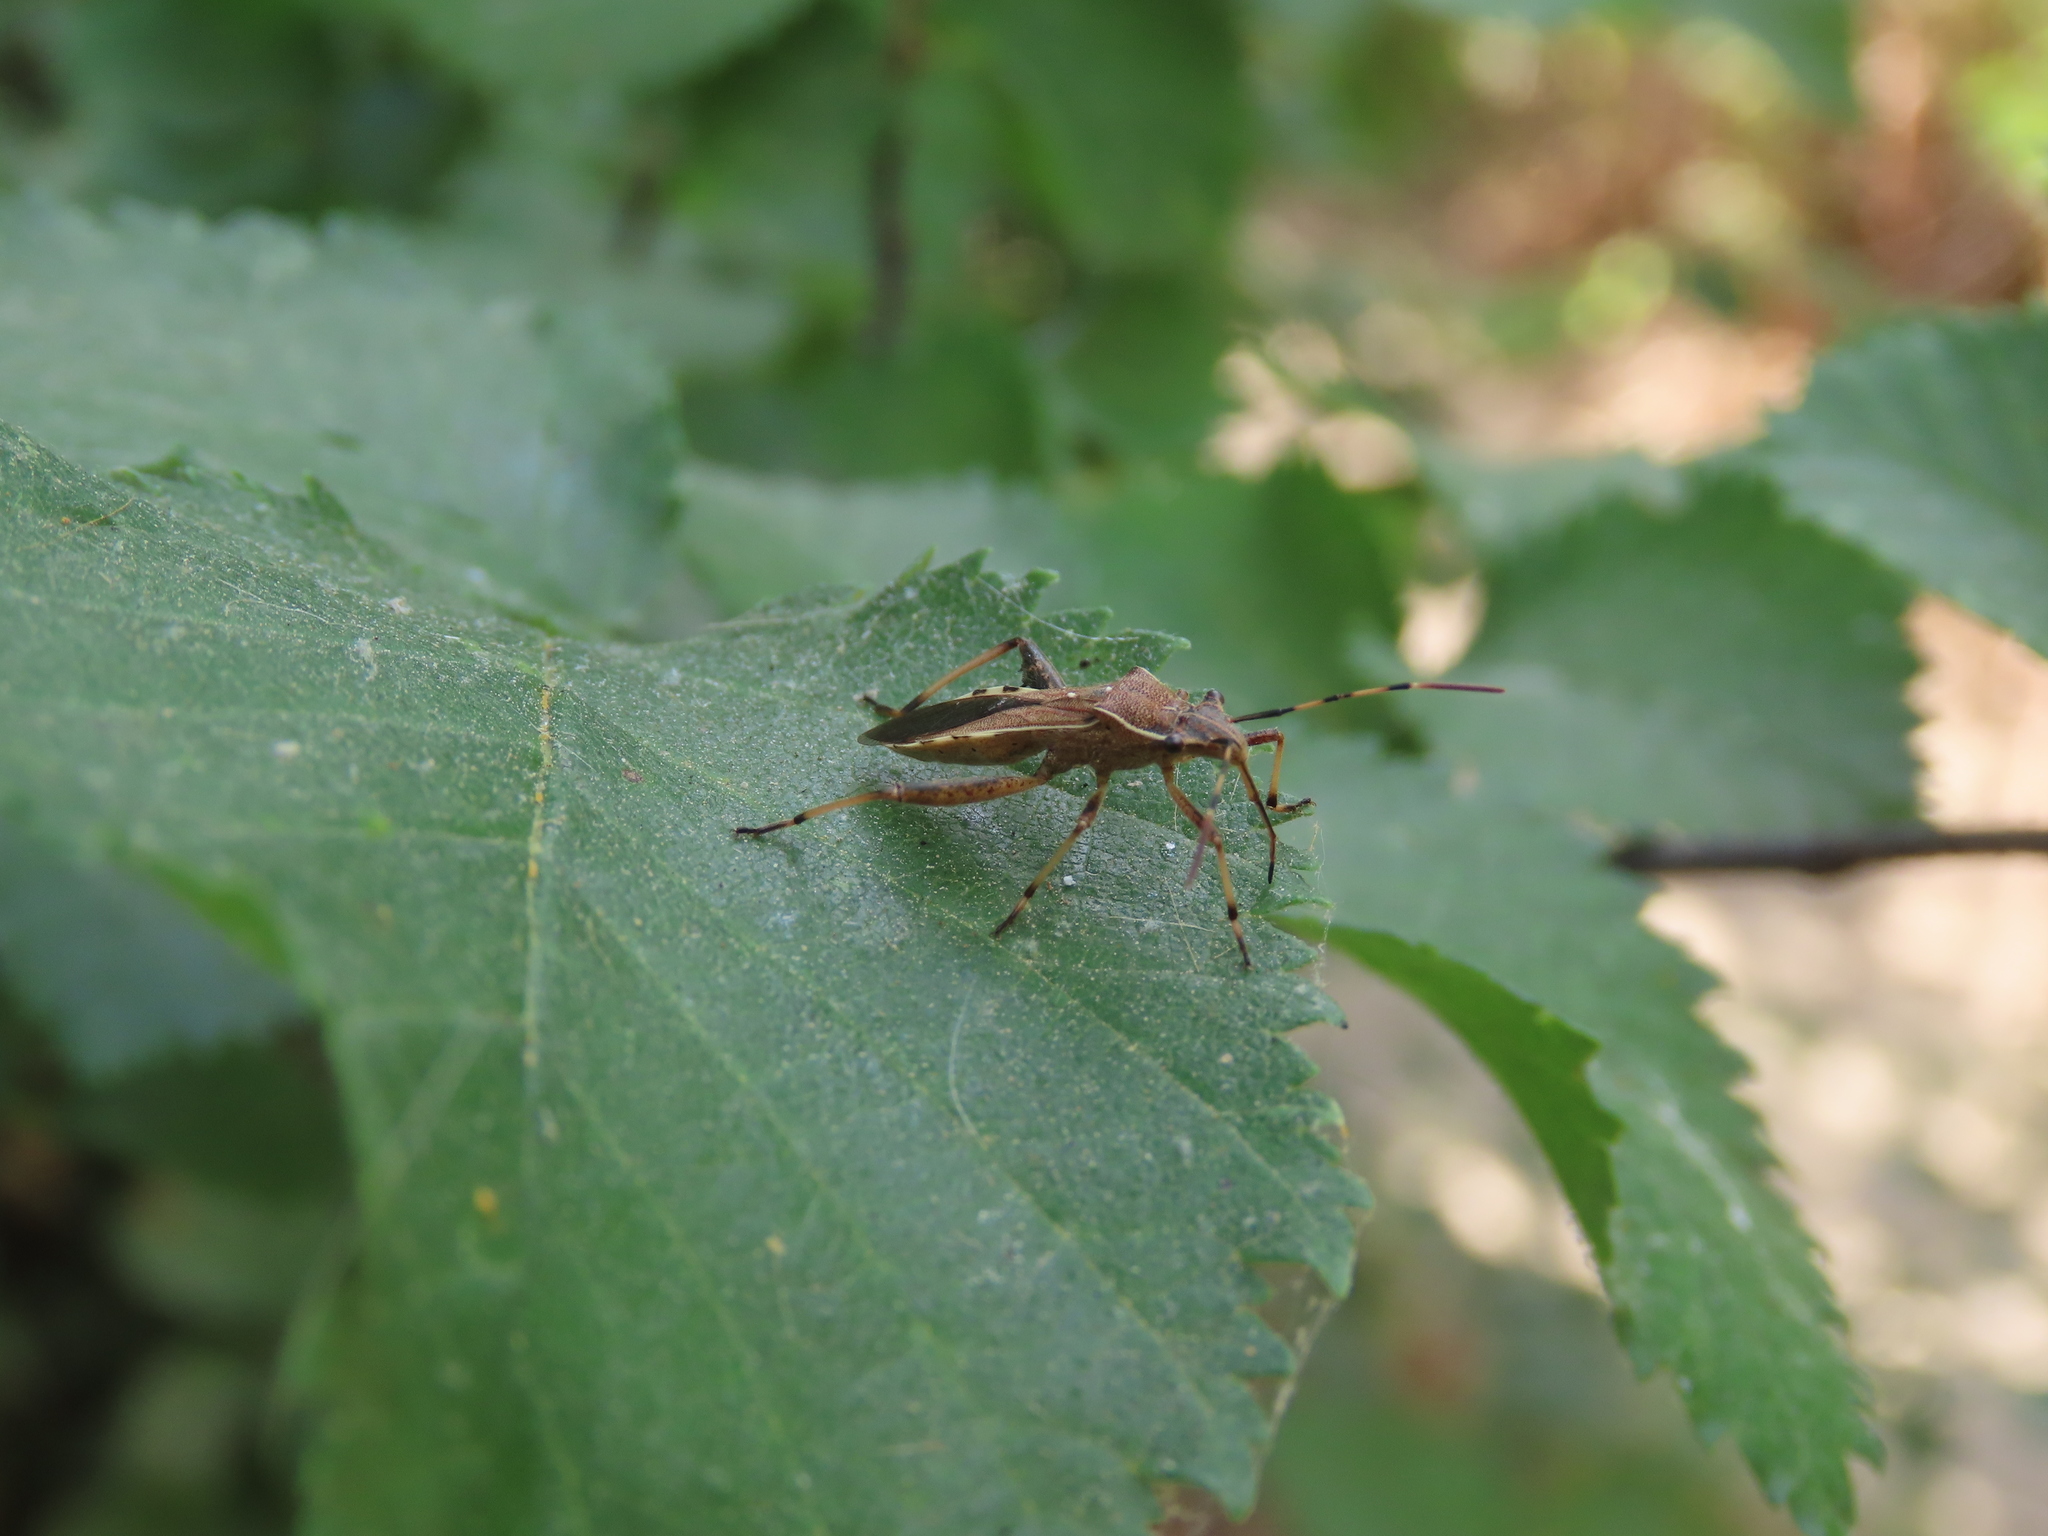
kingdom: Animalia
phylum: Arthropoda
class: Insecta
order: Hemiptera
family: Alydidae
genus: Camptopus
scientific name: Camptopus lateralis
